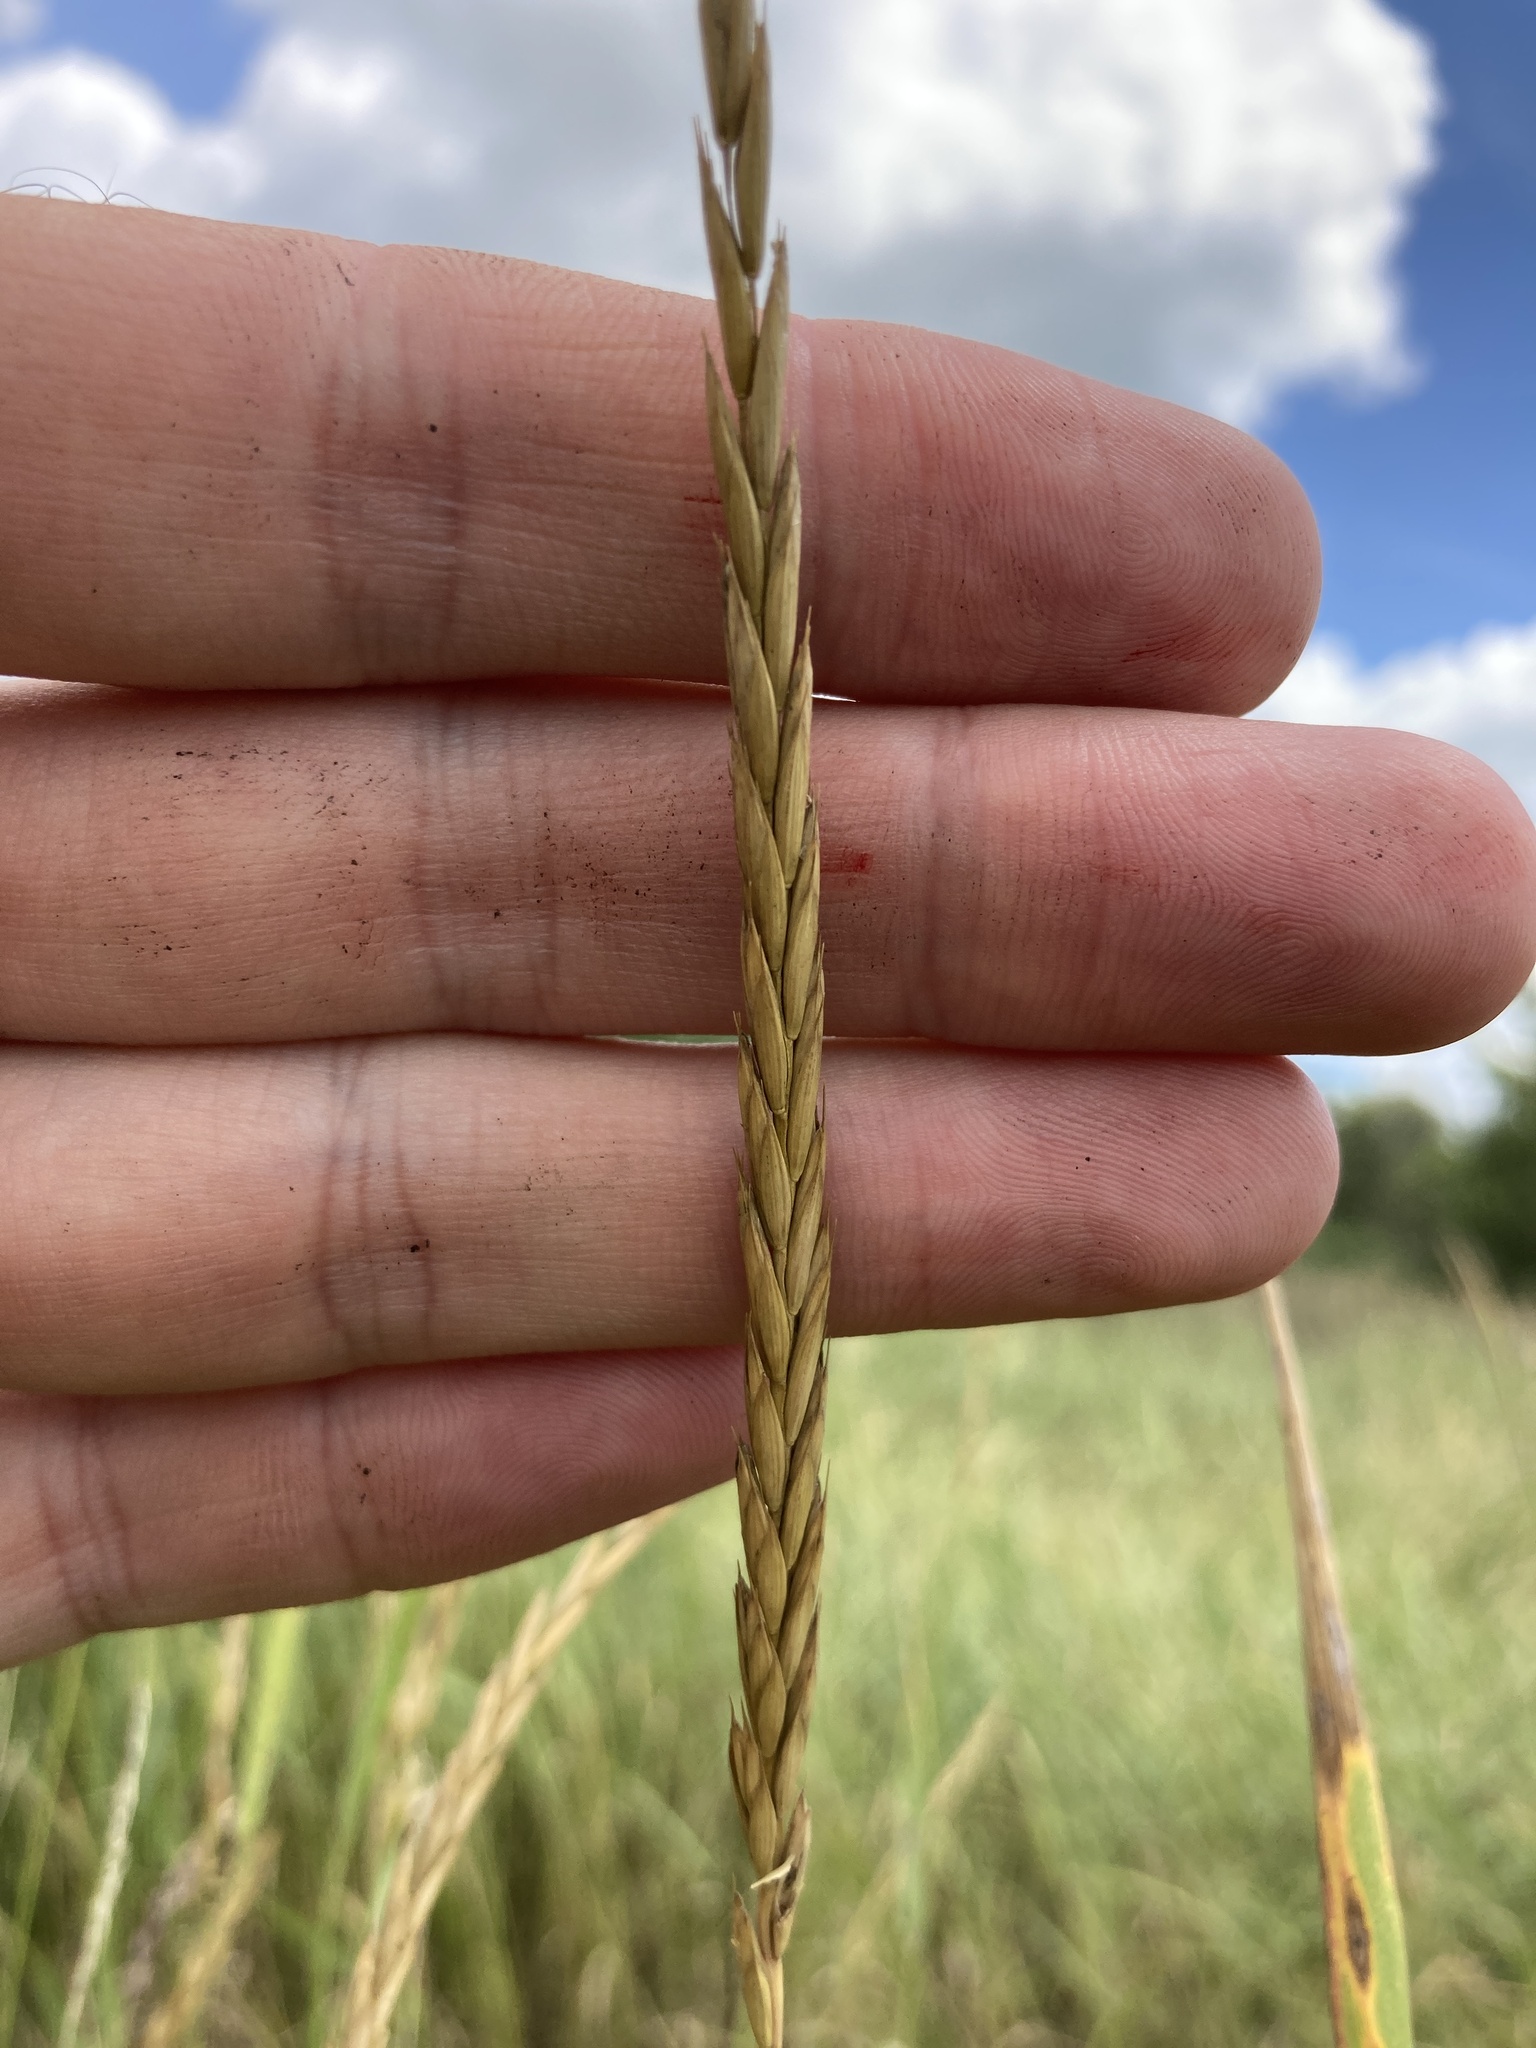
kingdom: Plantae
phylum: Tracheophyta
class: Liliopsida
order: Poales
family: Poaceae
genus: Elymus
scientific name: Elymus repens
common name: Quackgrass
